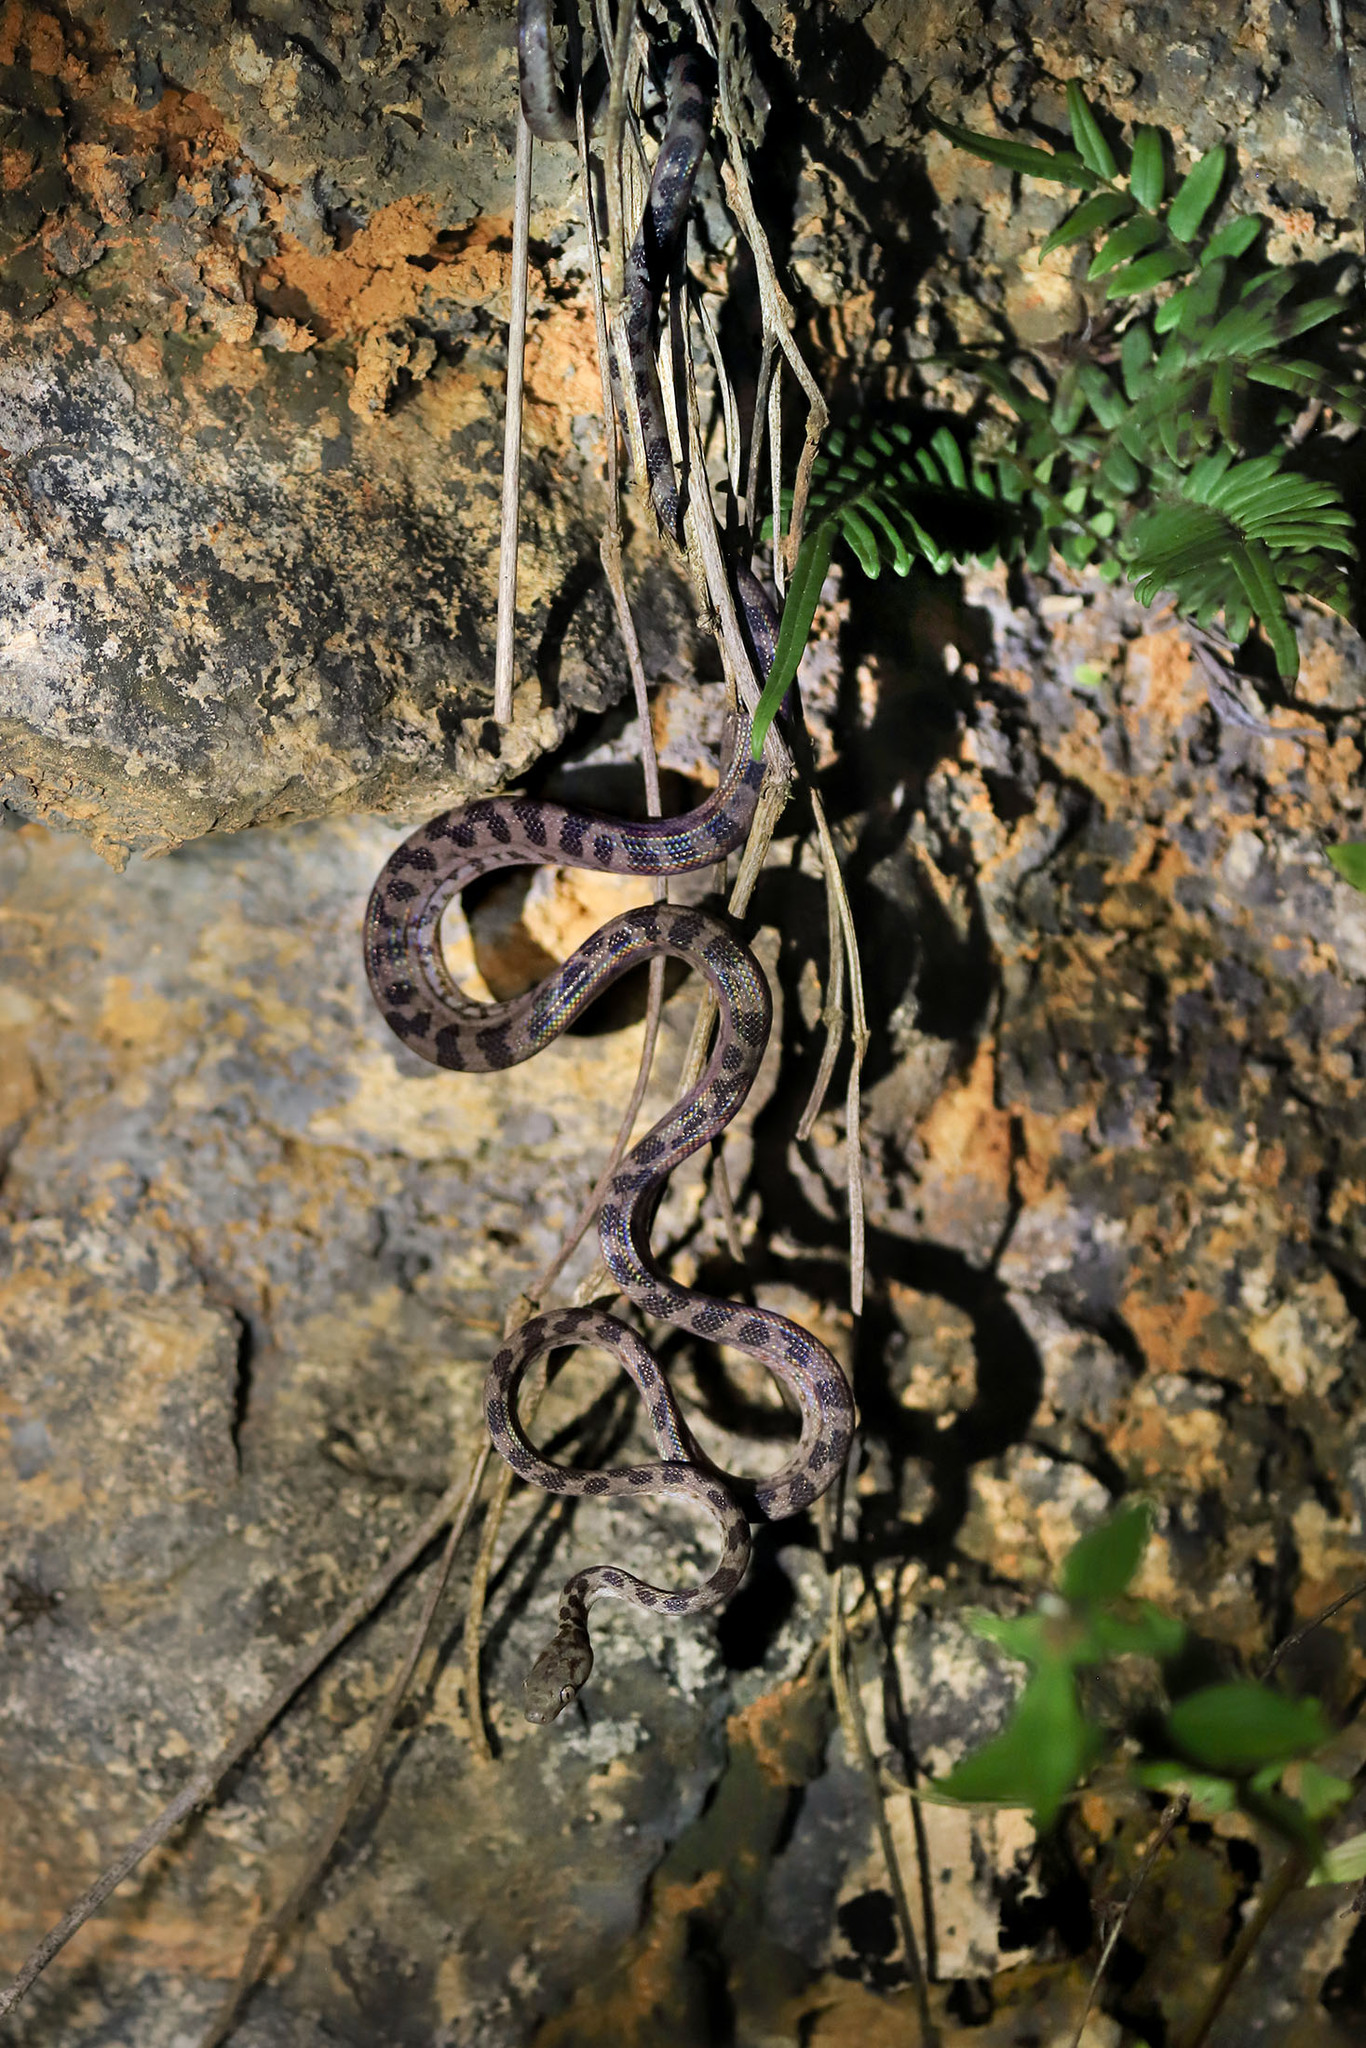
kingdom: Animalia
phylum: Chordata
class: Squamata
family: Boidae
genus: Chilabothrus
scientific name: Chilabothrus gracilis
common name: Hispaniola boa
